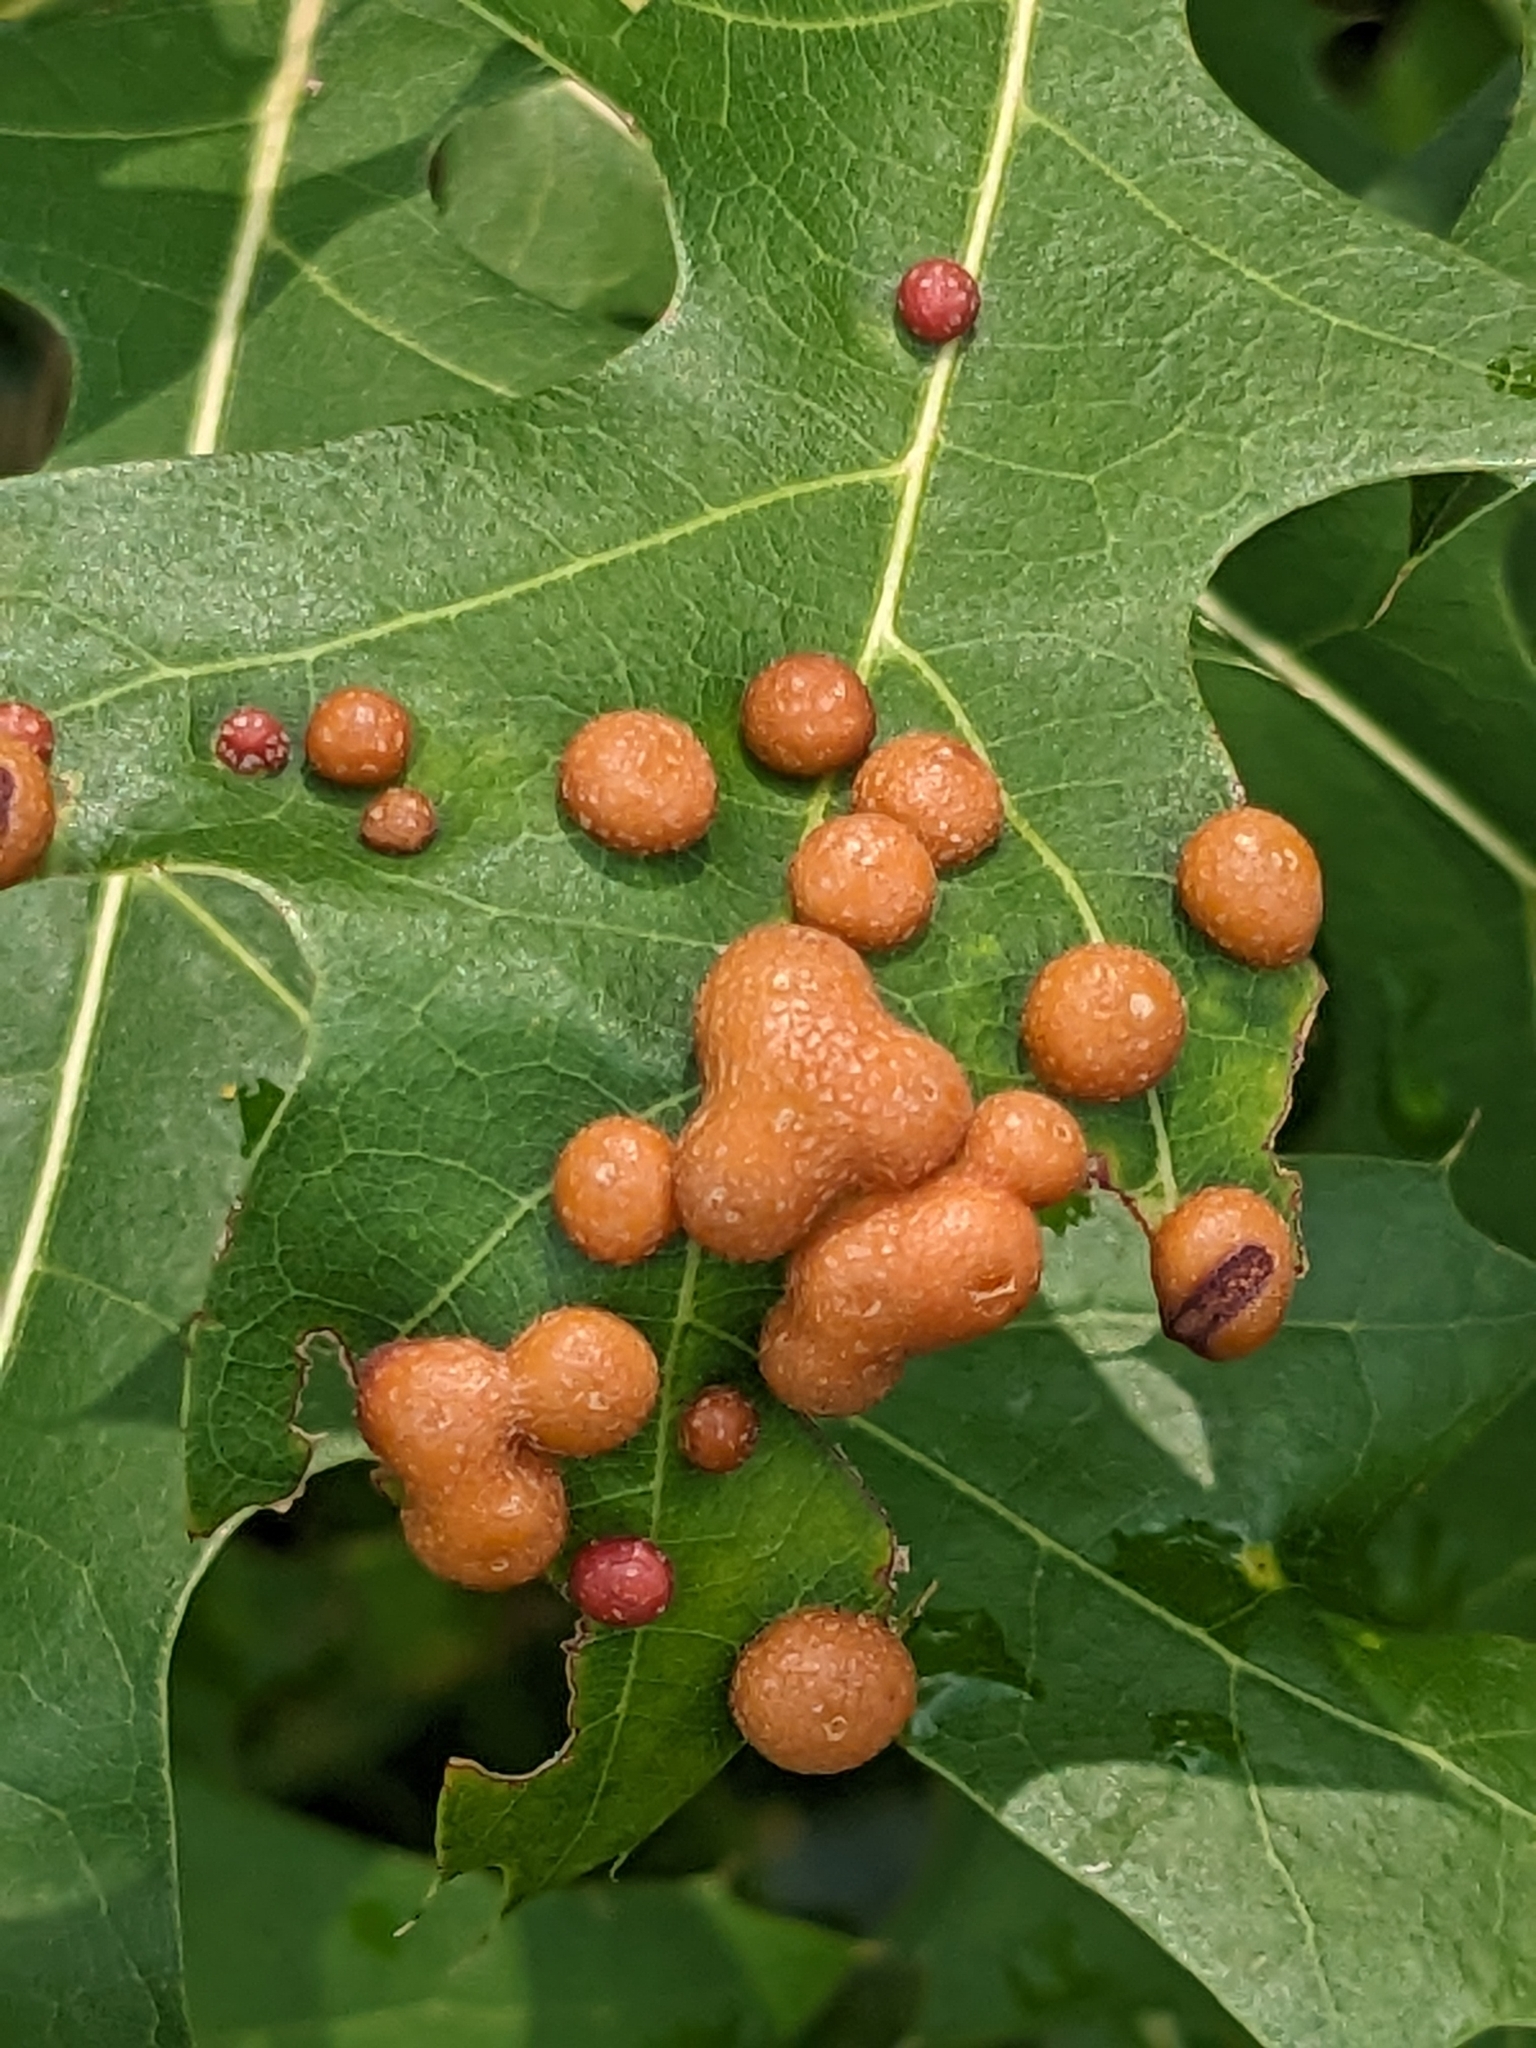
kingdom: Animalia
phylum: Arthropoda
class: Insecta
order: Diptera
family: Cecidomyiidae
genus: Polystepha
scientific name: Polystepha pilulae
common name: Oak leaf gall midge
